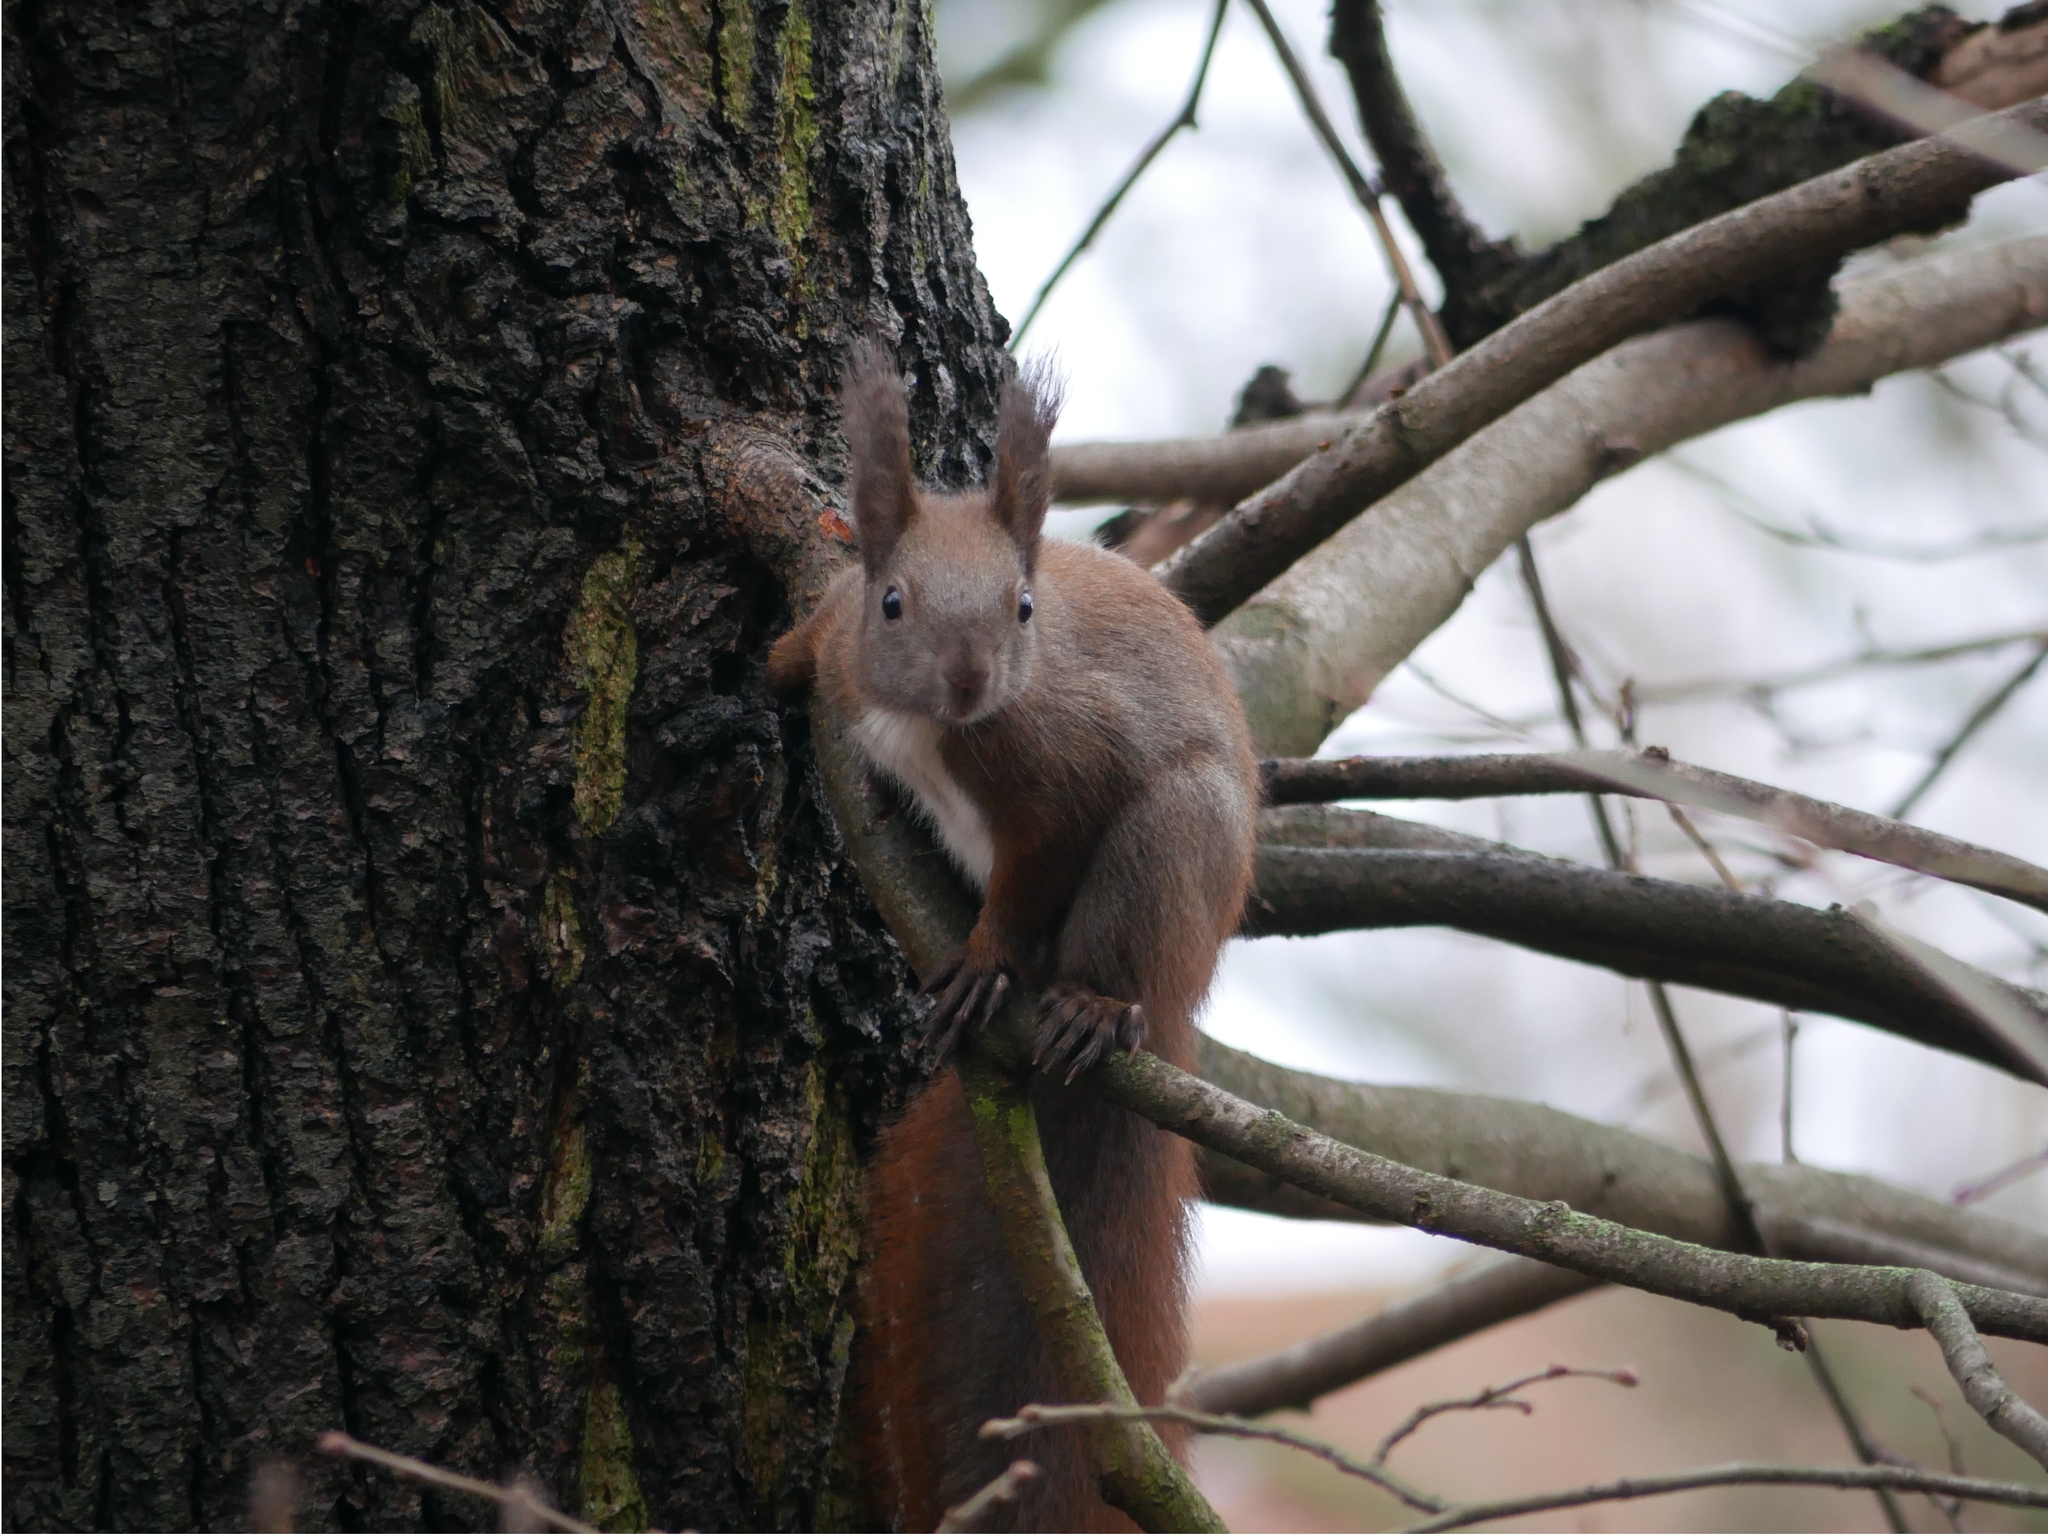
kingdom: Animalia
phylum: Chordata
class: Mammalia
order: Rodentia
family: Sciuridae
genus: Sciurus
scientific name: Sciurus vulgaris
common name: Eurasian red squirrel
